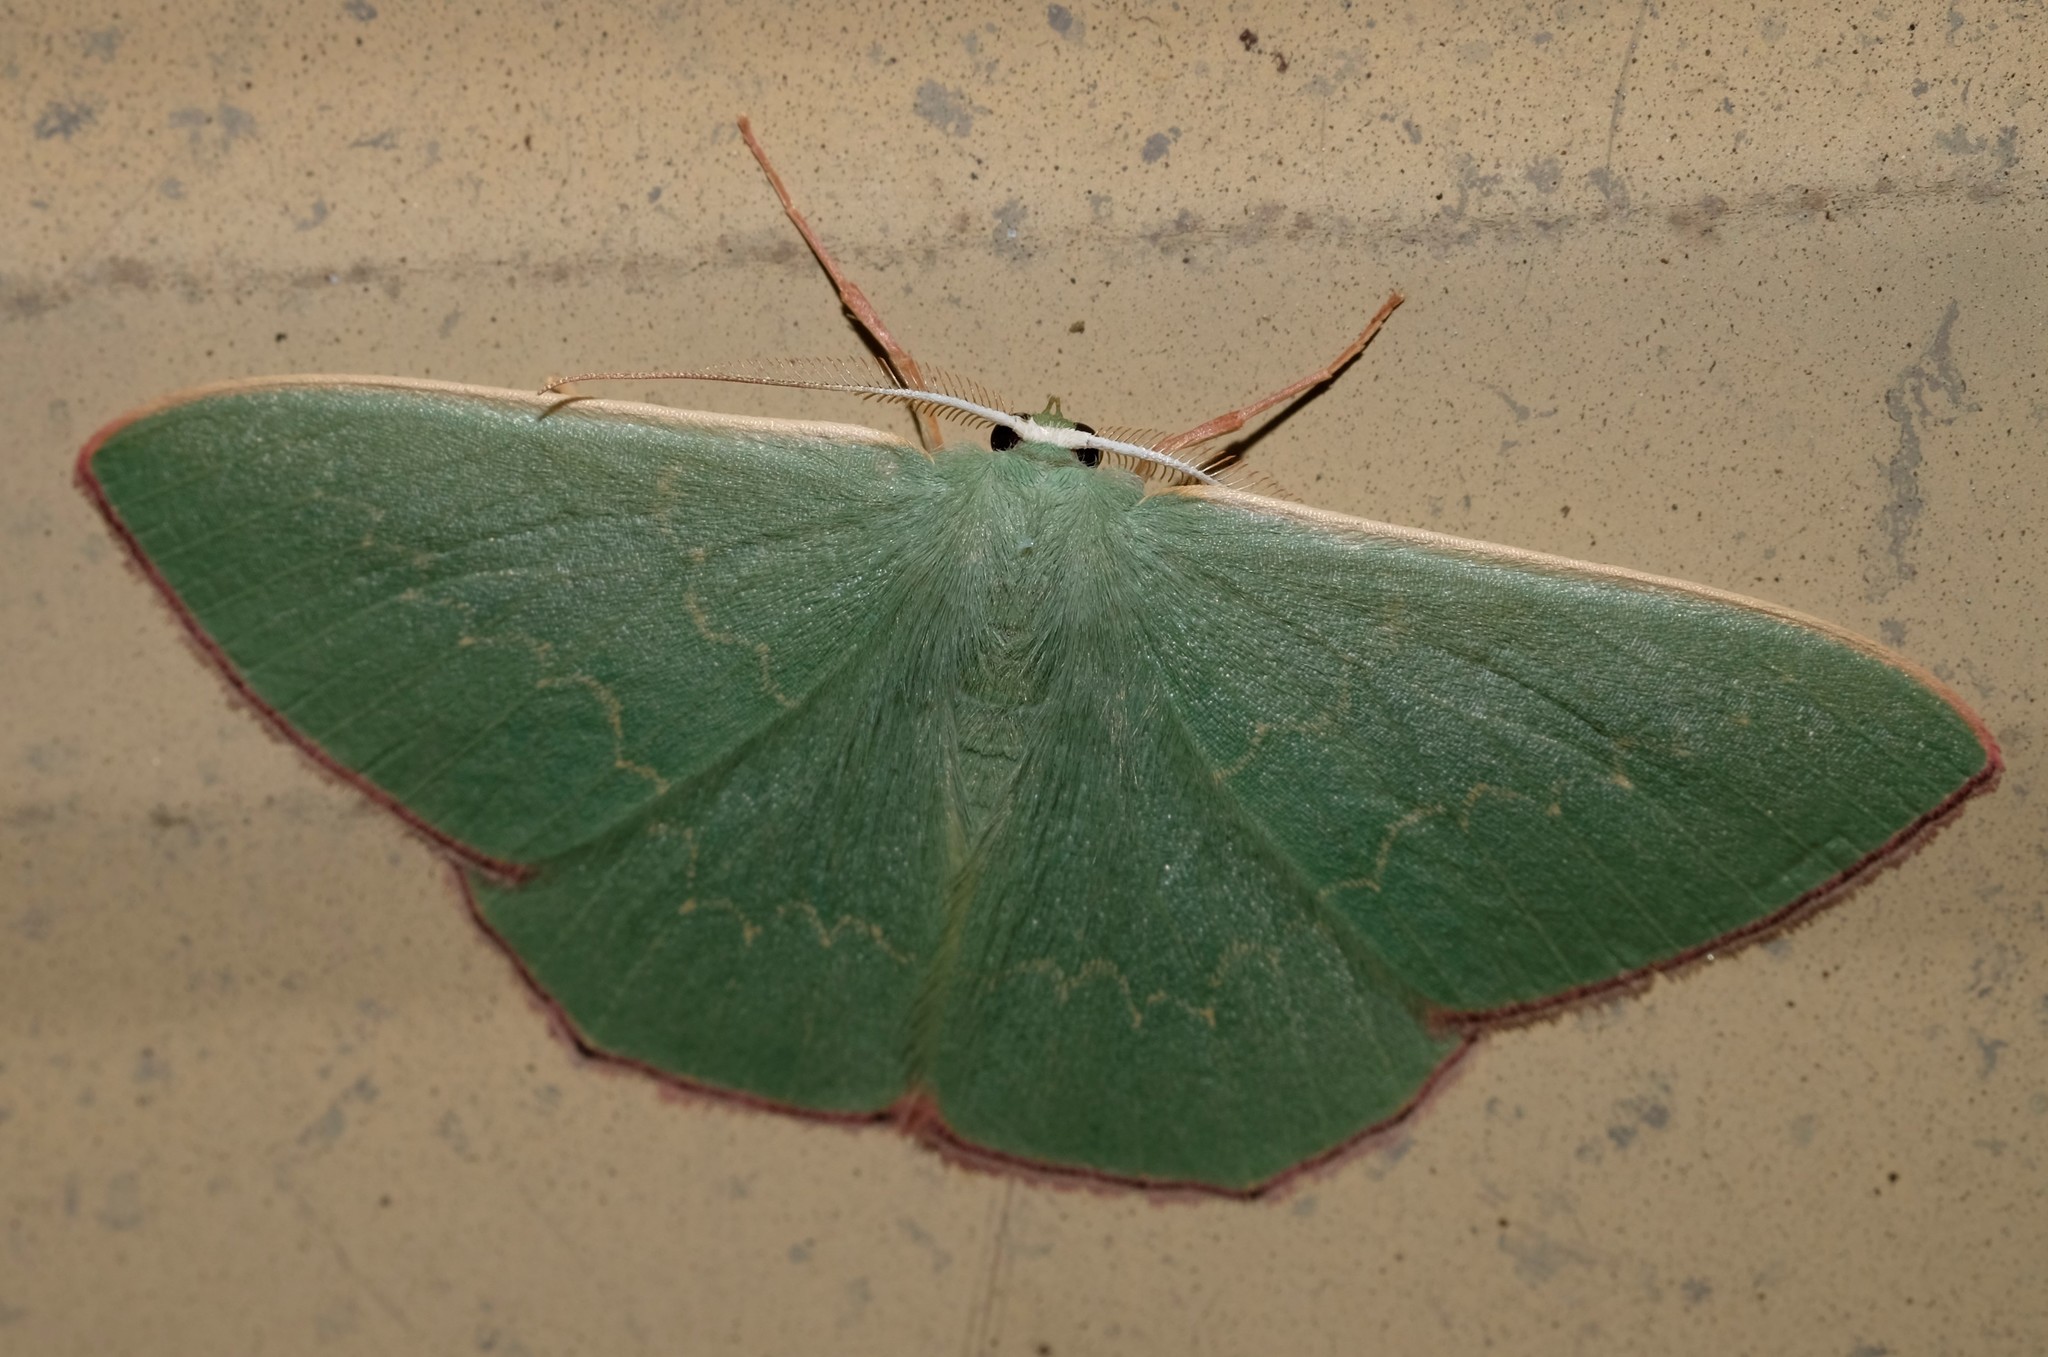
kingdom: Animalia
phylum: Arthropoda
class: Insecta
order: Lepidoptera
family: Geometridae
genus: Prasinocyma
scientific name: Prasinocyma semicrocea
